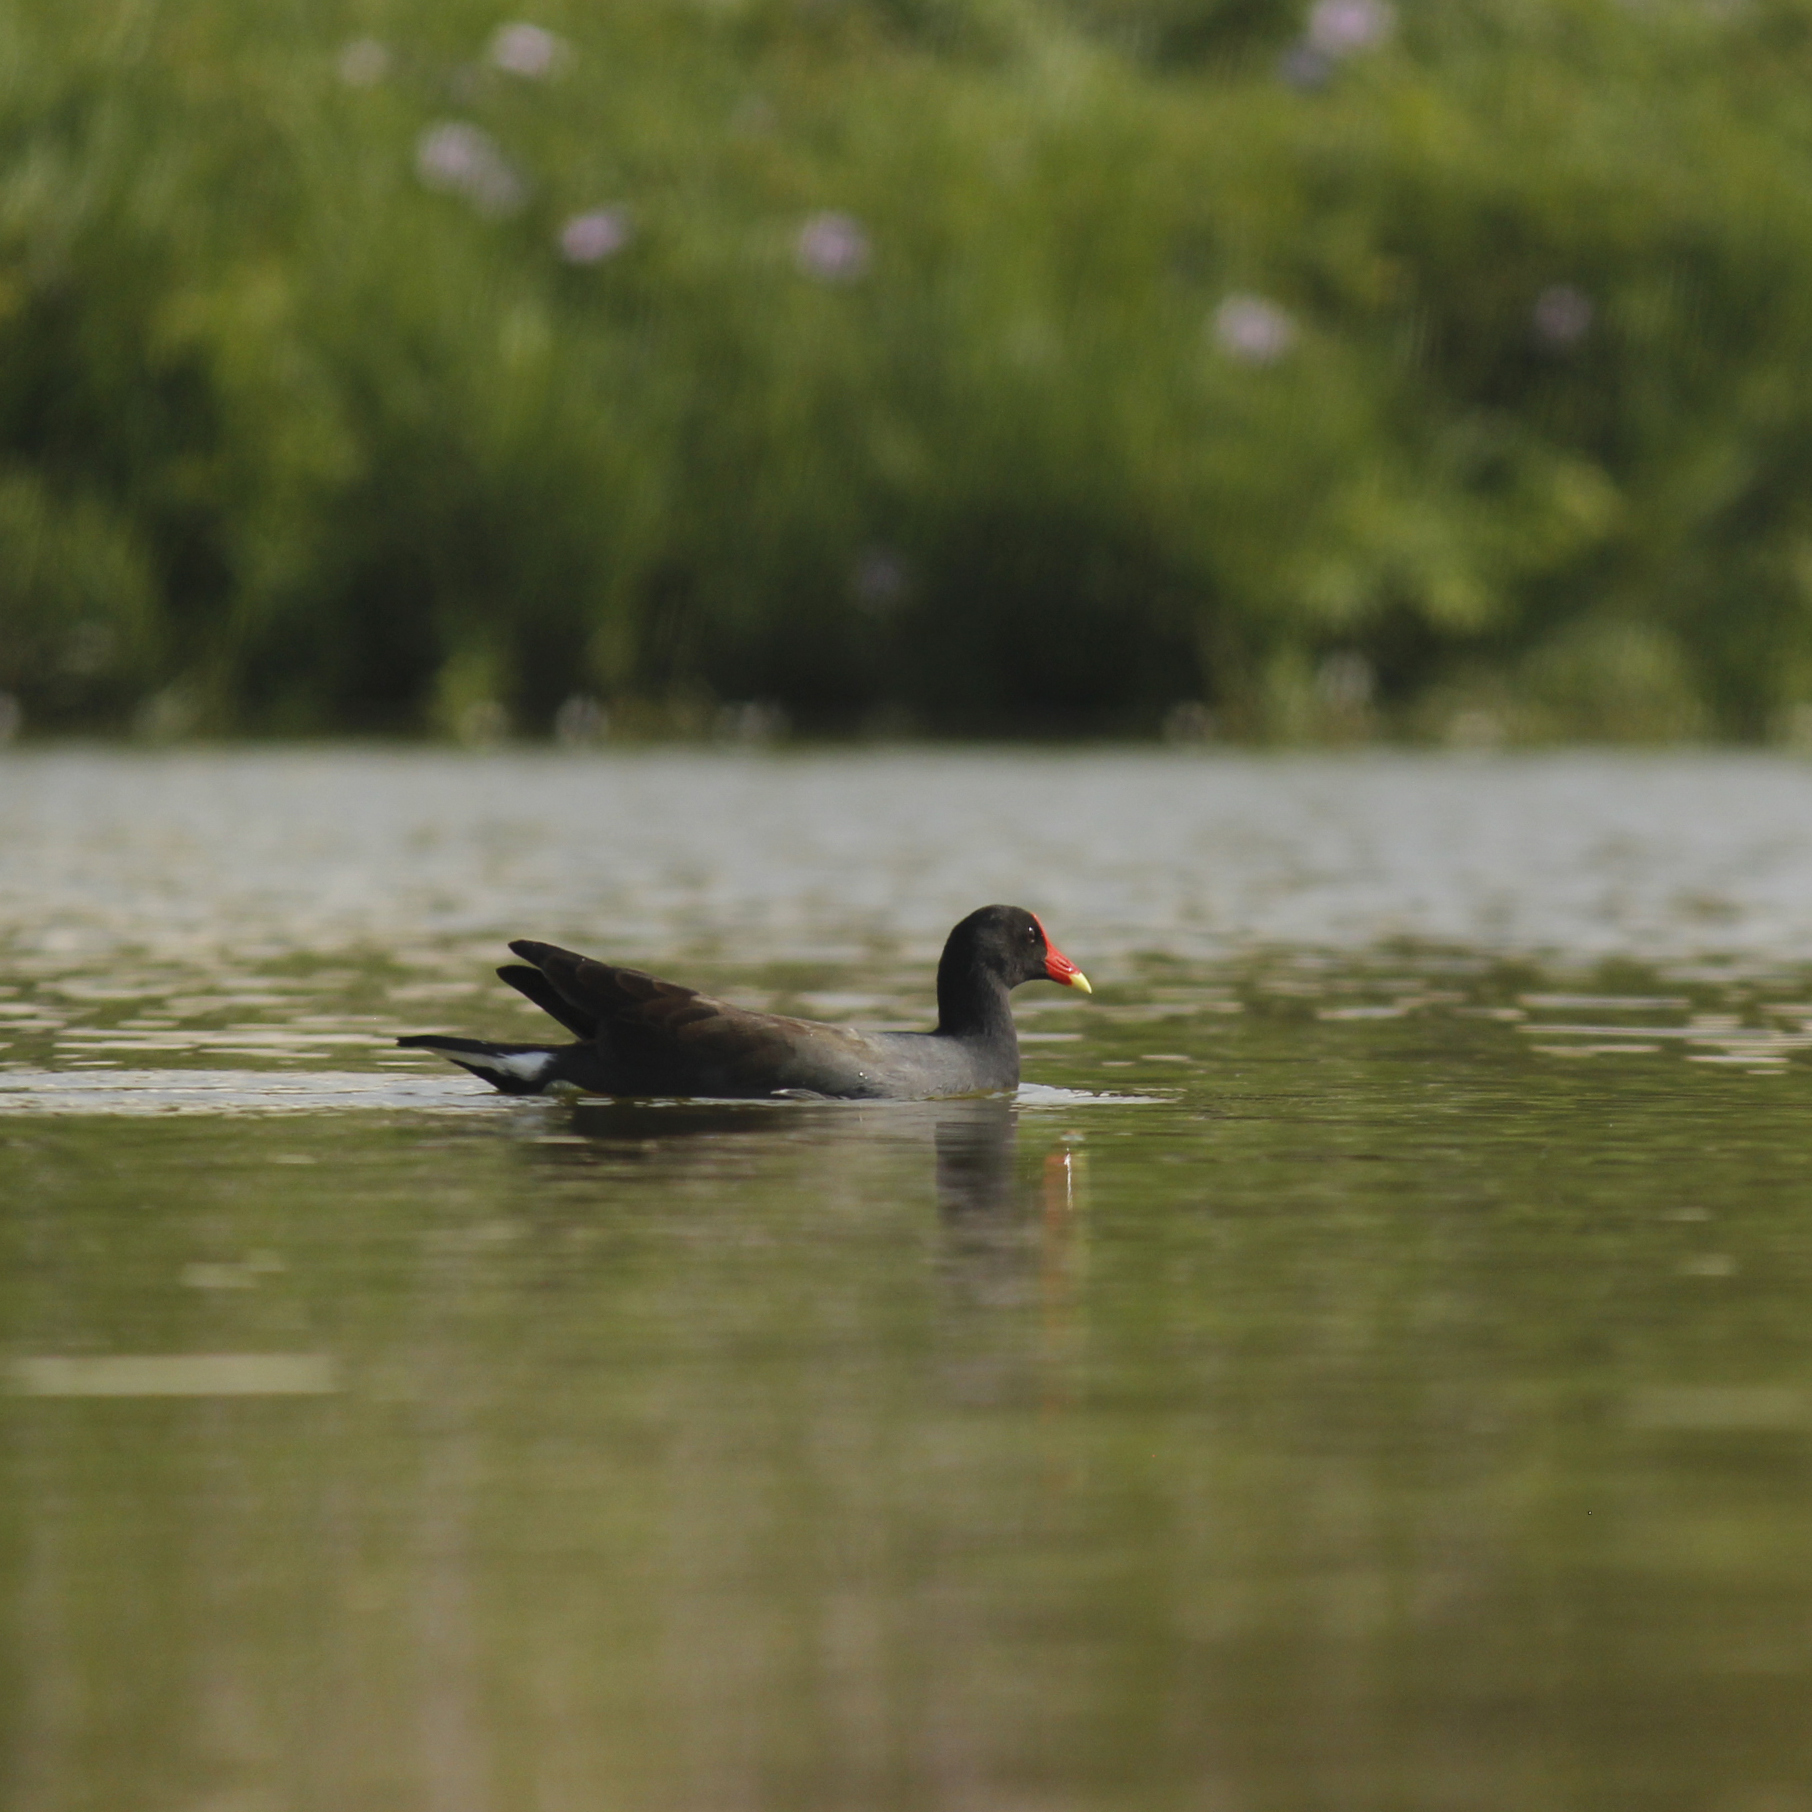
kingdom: Animalia
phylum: Chordata
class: Aves
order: Gruiformes
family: Rallidae
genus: Gallinula
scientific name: Gallinula chloropus
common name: Common moorhen
